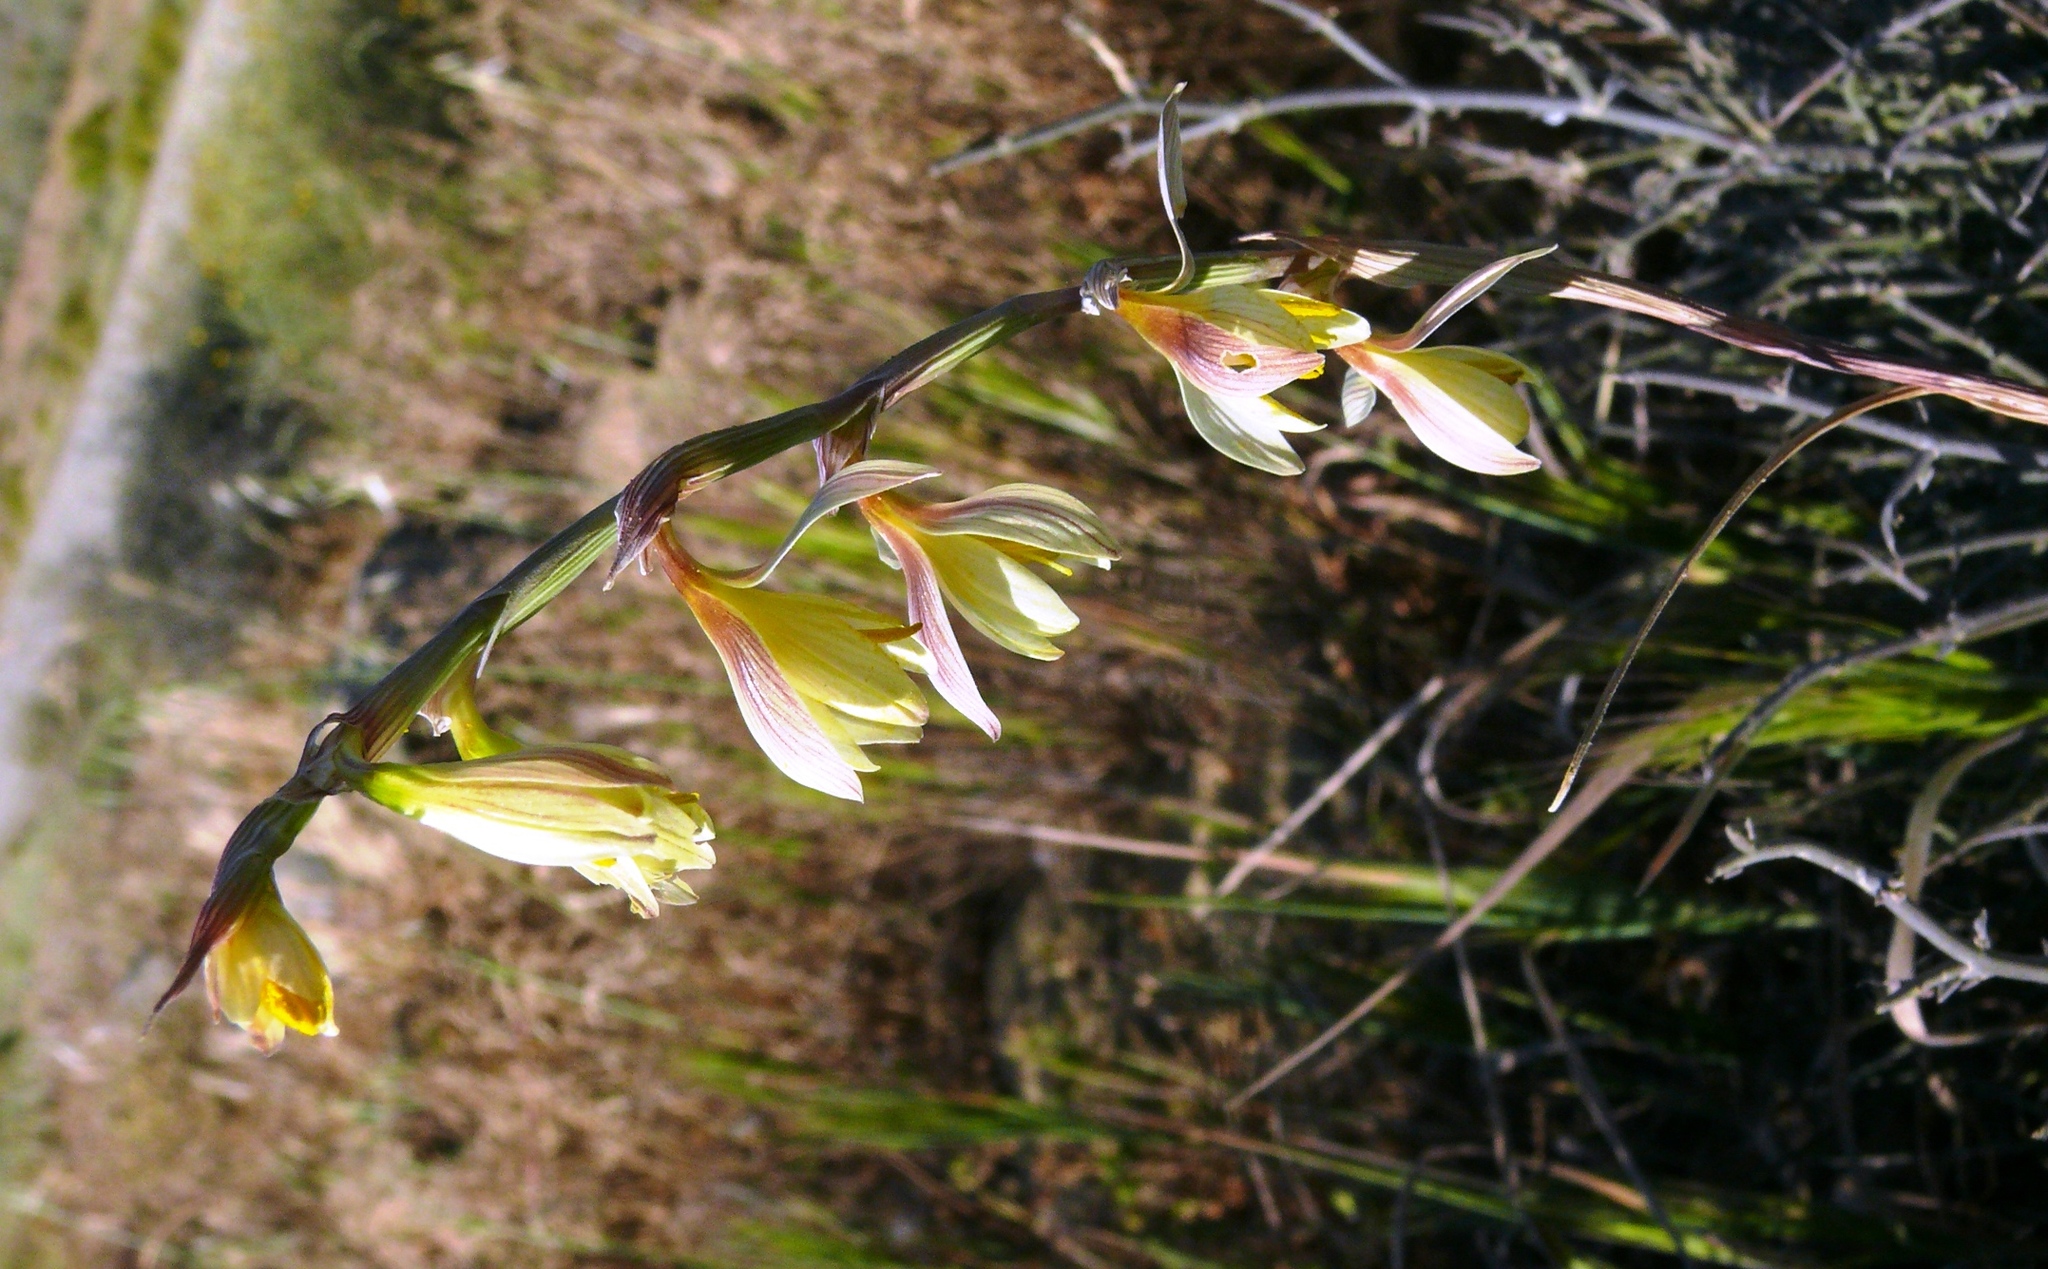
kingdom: Plantae
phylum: Tracheophyta
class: Liliopsida
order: Asparagales
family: Iridaceae
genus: Hesperantha
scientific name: Hesperantha radiata
